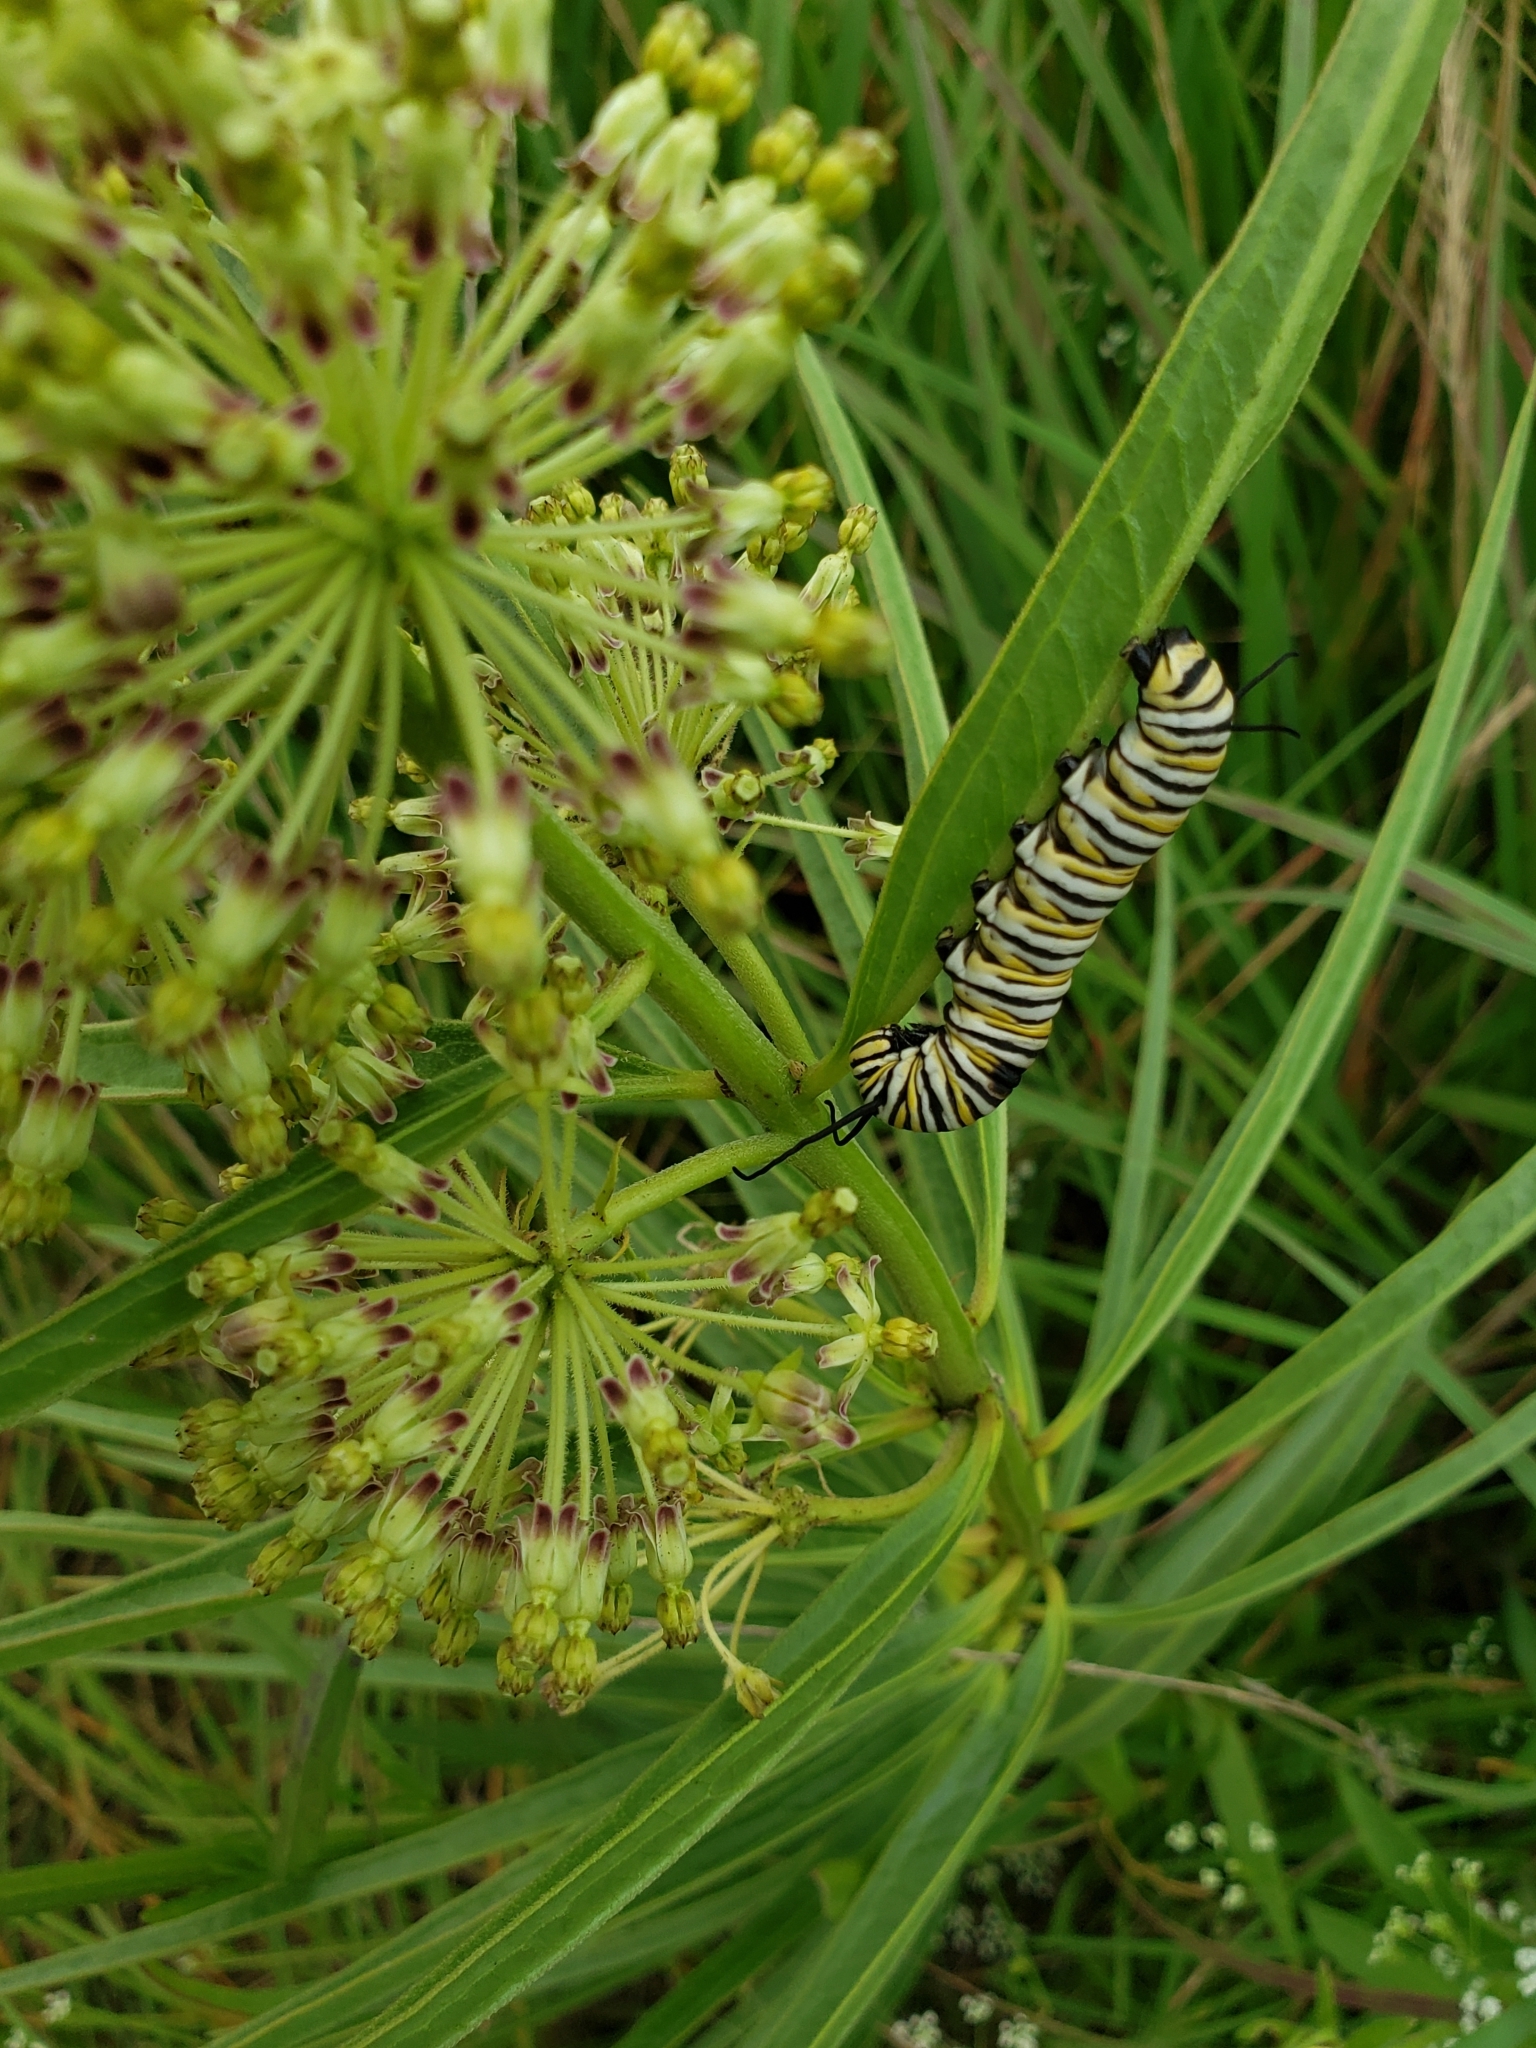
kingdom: Animalia
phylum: Arthropoda
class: Insecta
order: Lepidoptera
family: Nymphalidae
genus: Danaus
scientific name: Danaus plexippus
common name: Monarch
